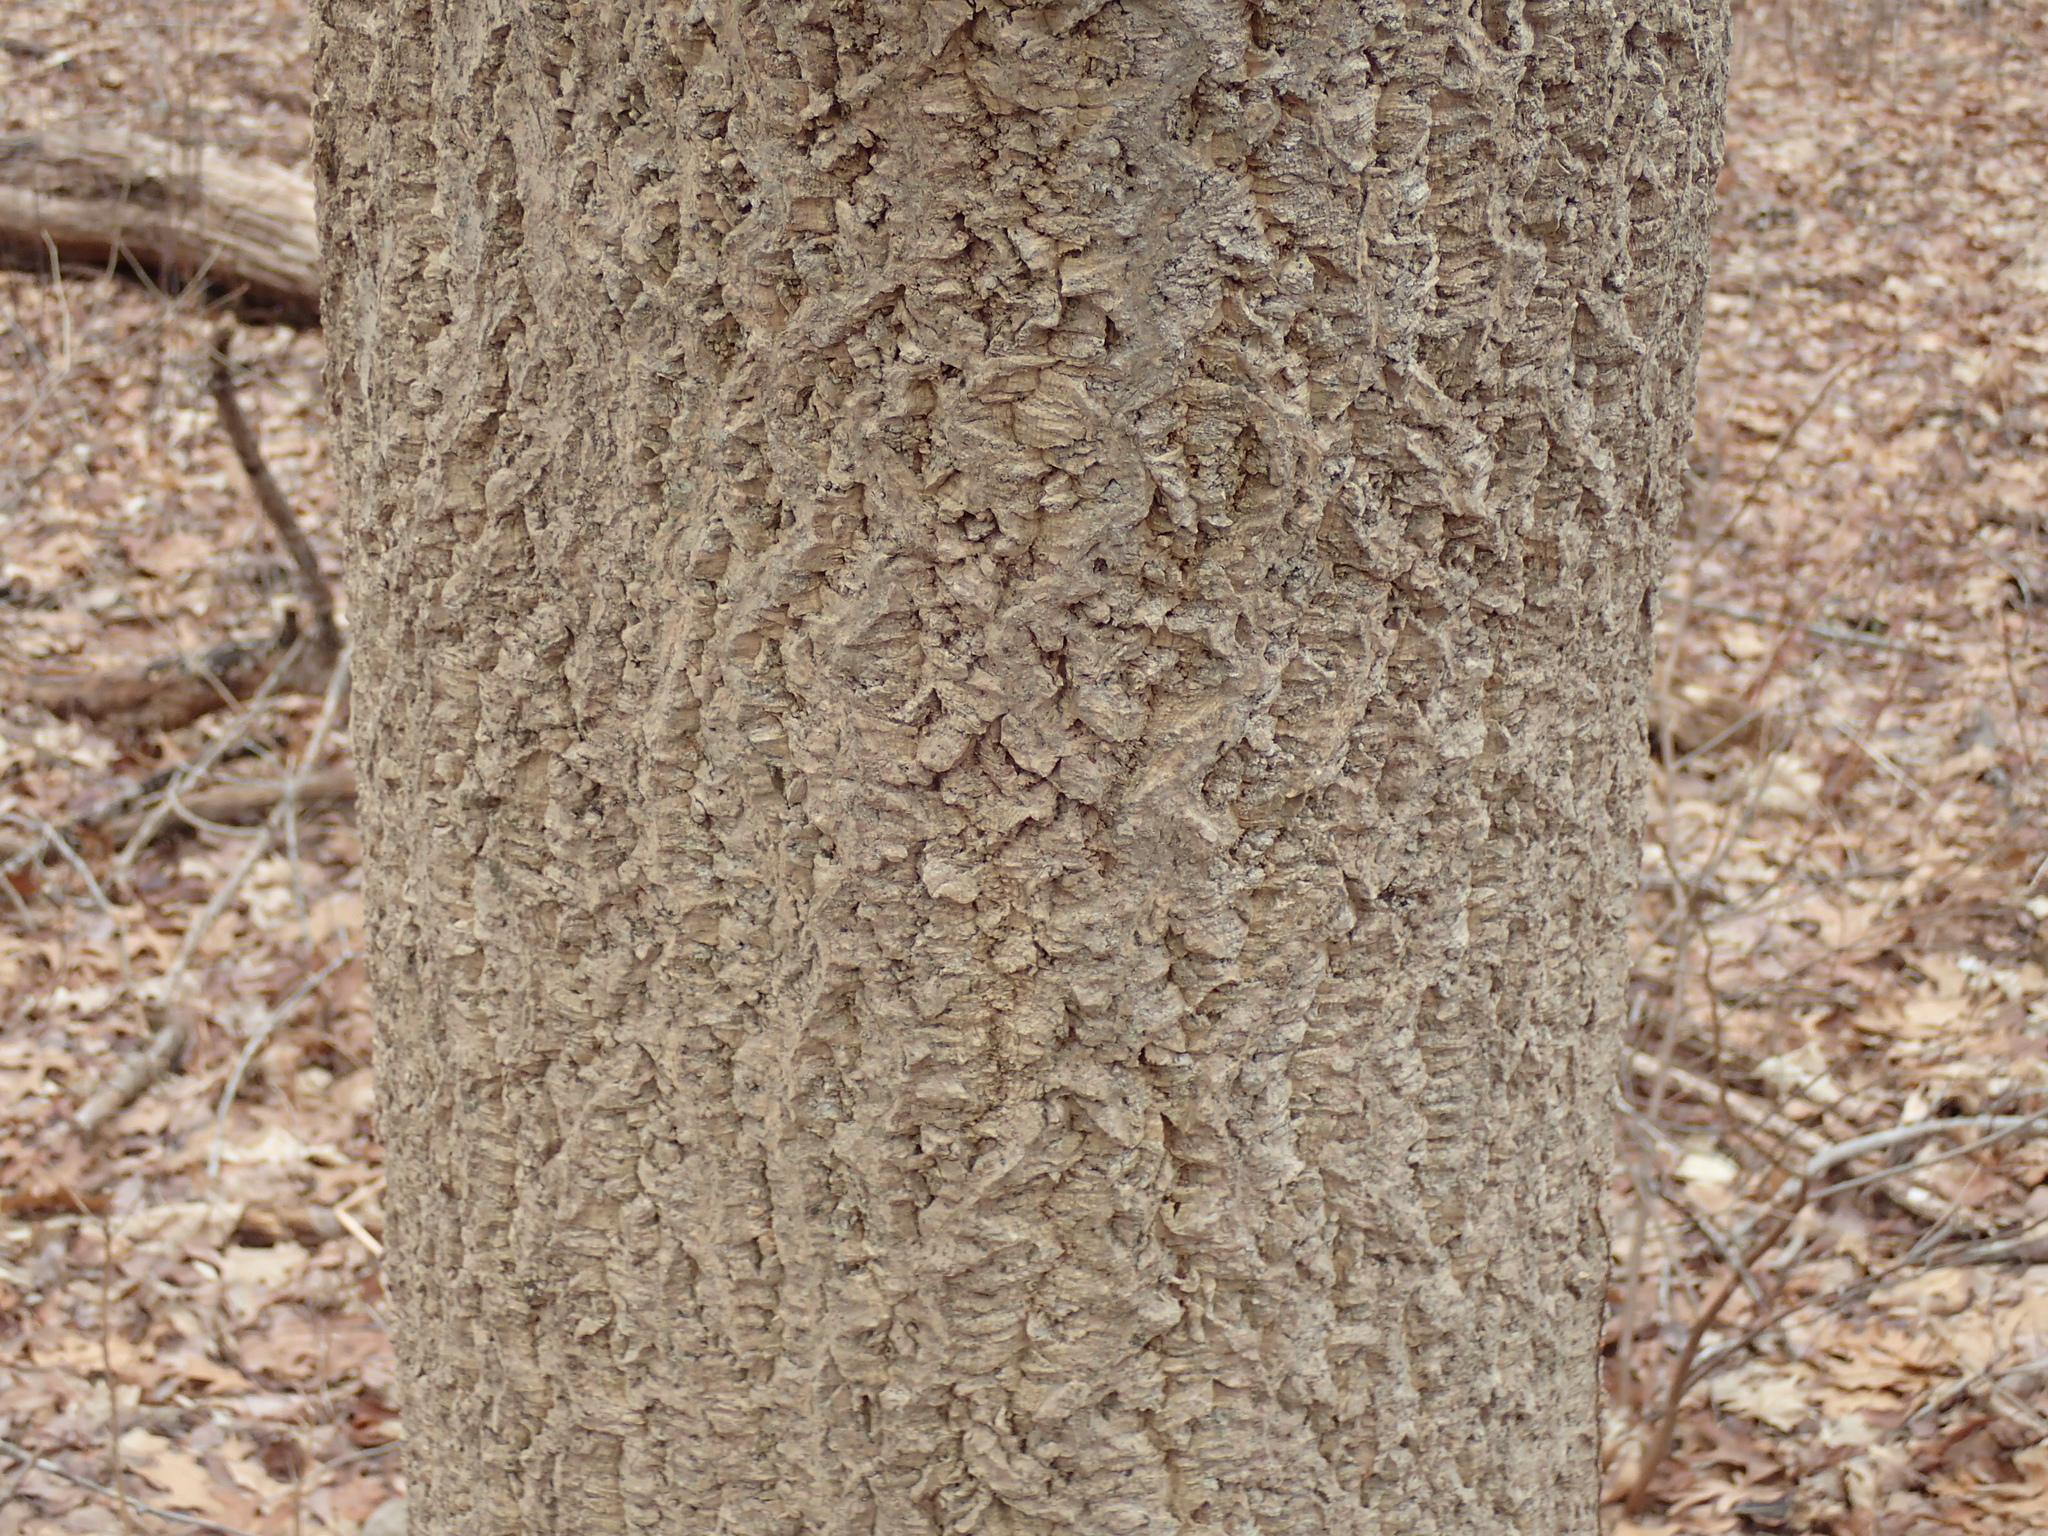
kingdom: Plantae
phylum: Tracheophyta
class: Magnoliopsida
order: Sapindales
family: Rutaceae
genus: Phellodendron
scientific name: Phellodendron amurense
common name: Amur corktree
